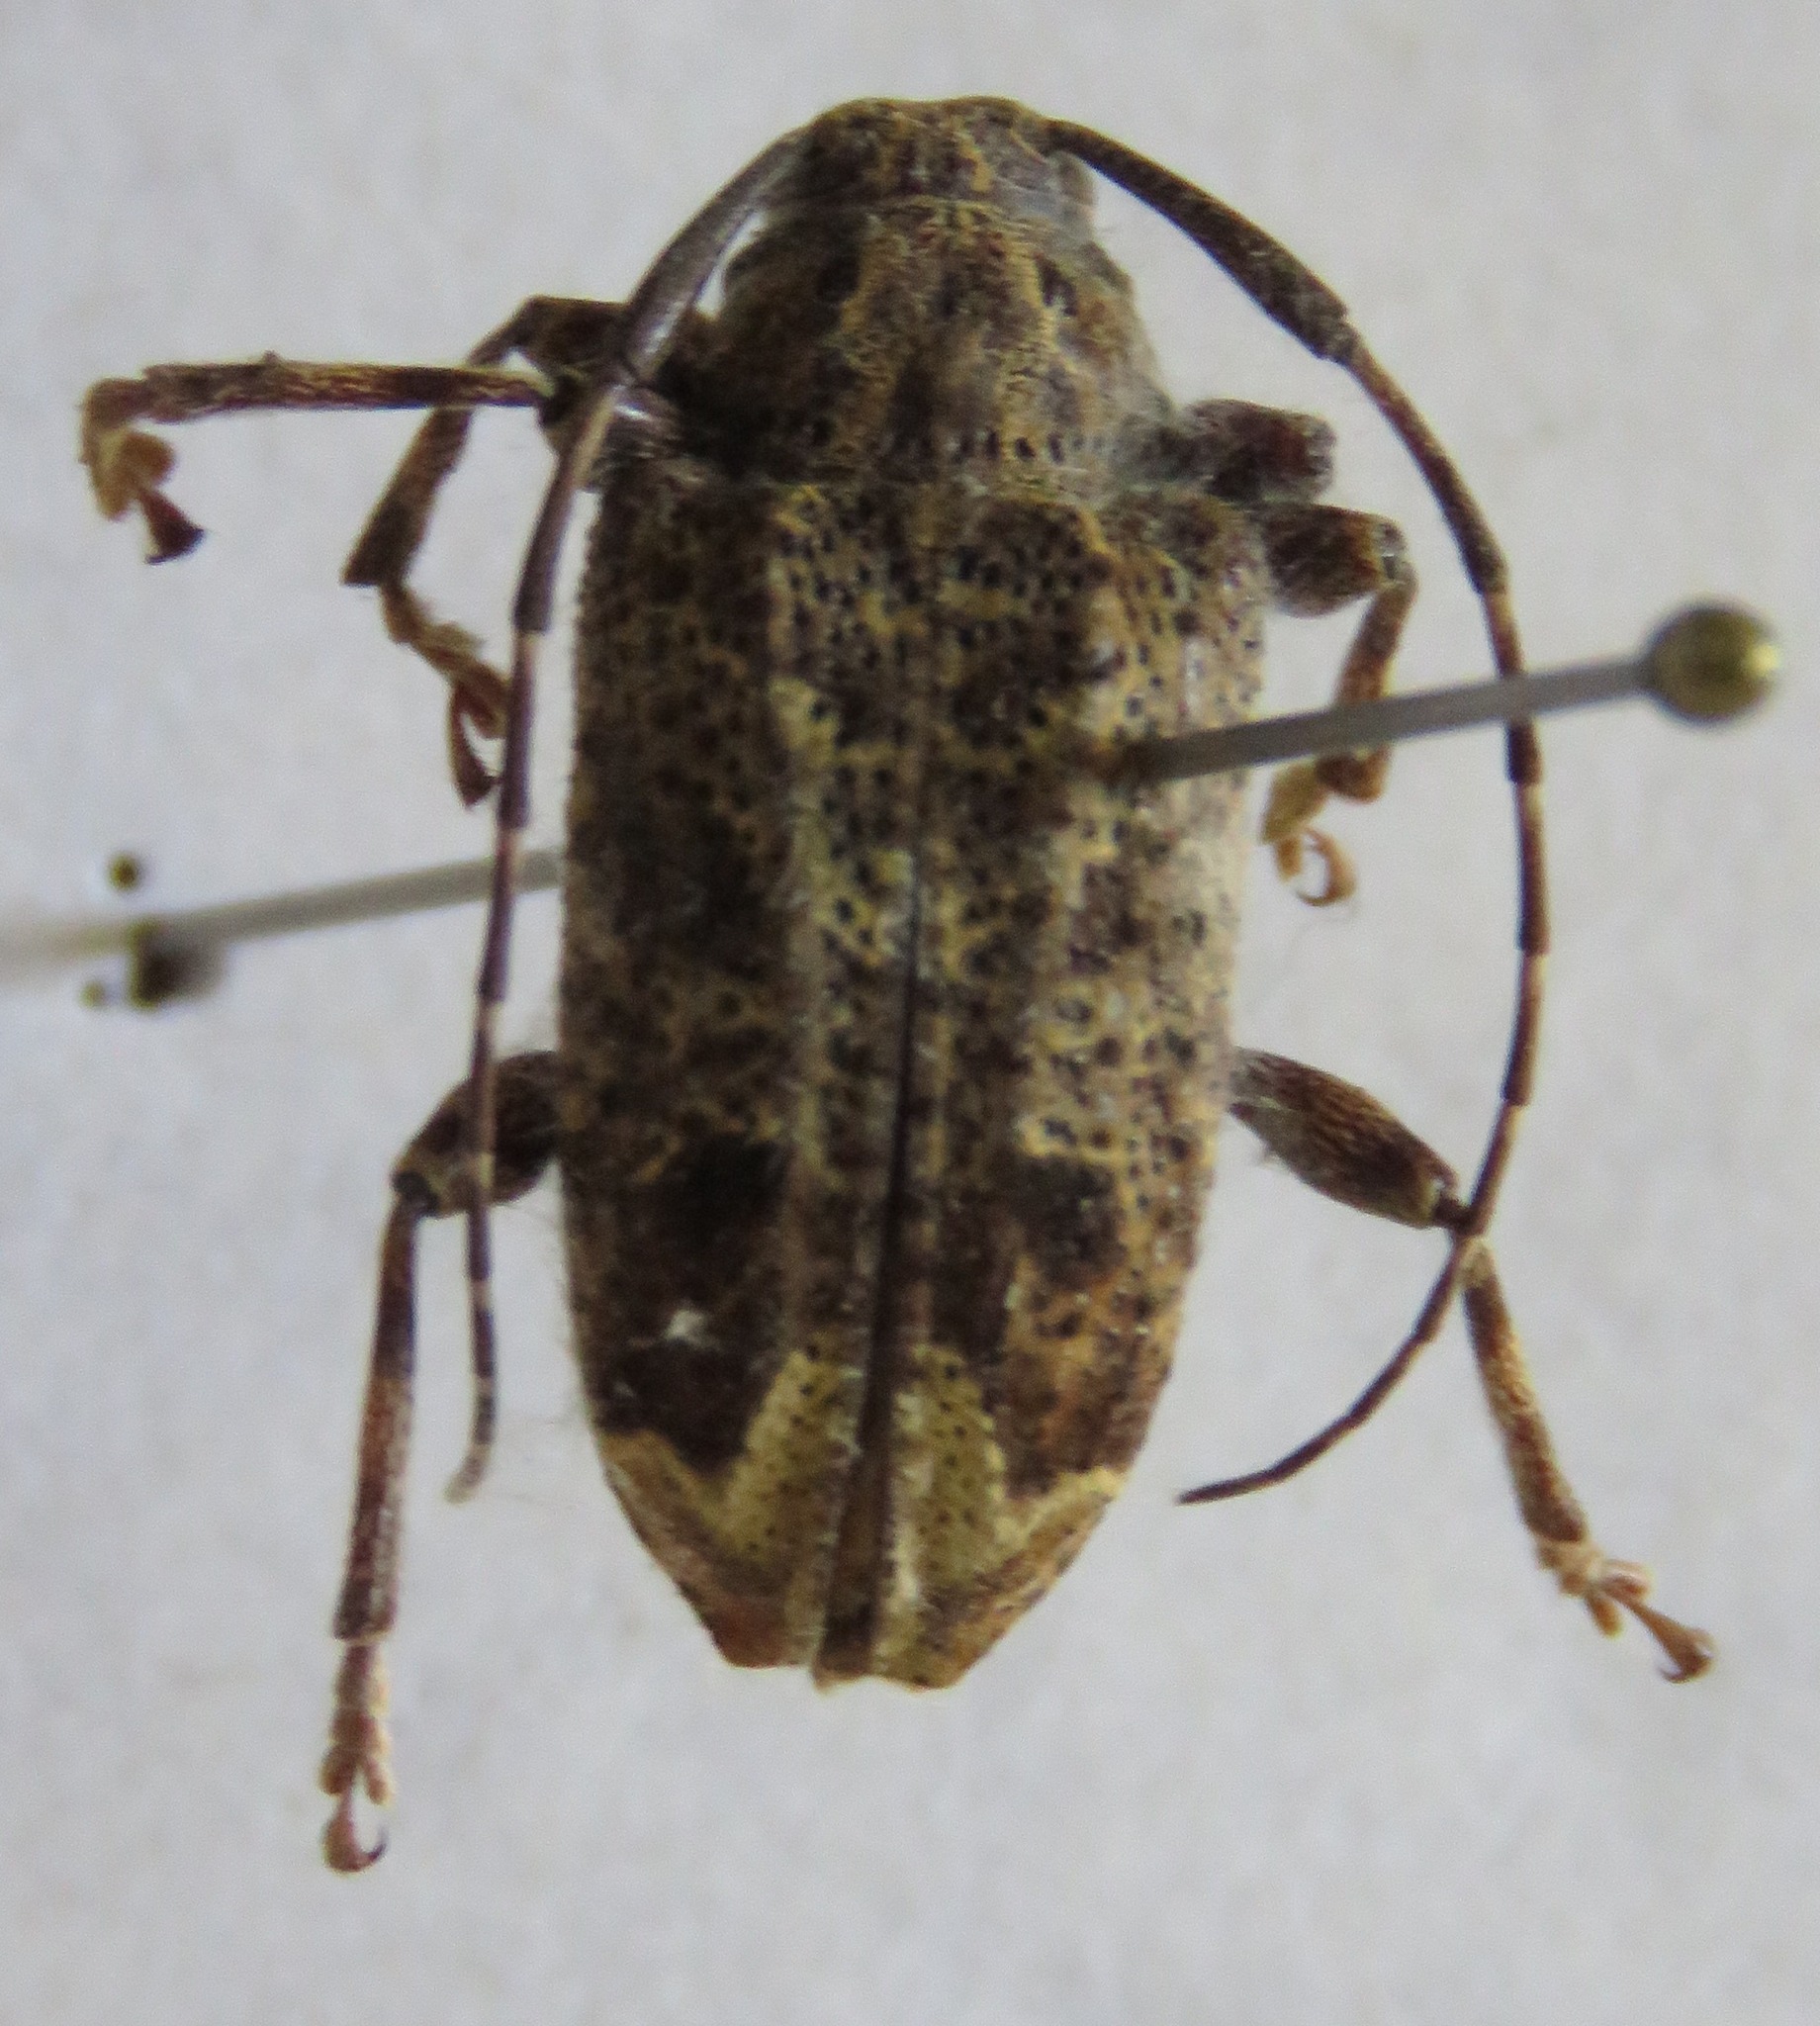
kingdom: Animalia
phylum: Arthropoda
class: Insecta
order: Coleoptera
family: Cerambycidae
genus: Trypanidius
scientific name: Trypanidius mexicanus
